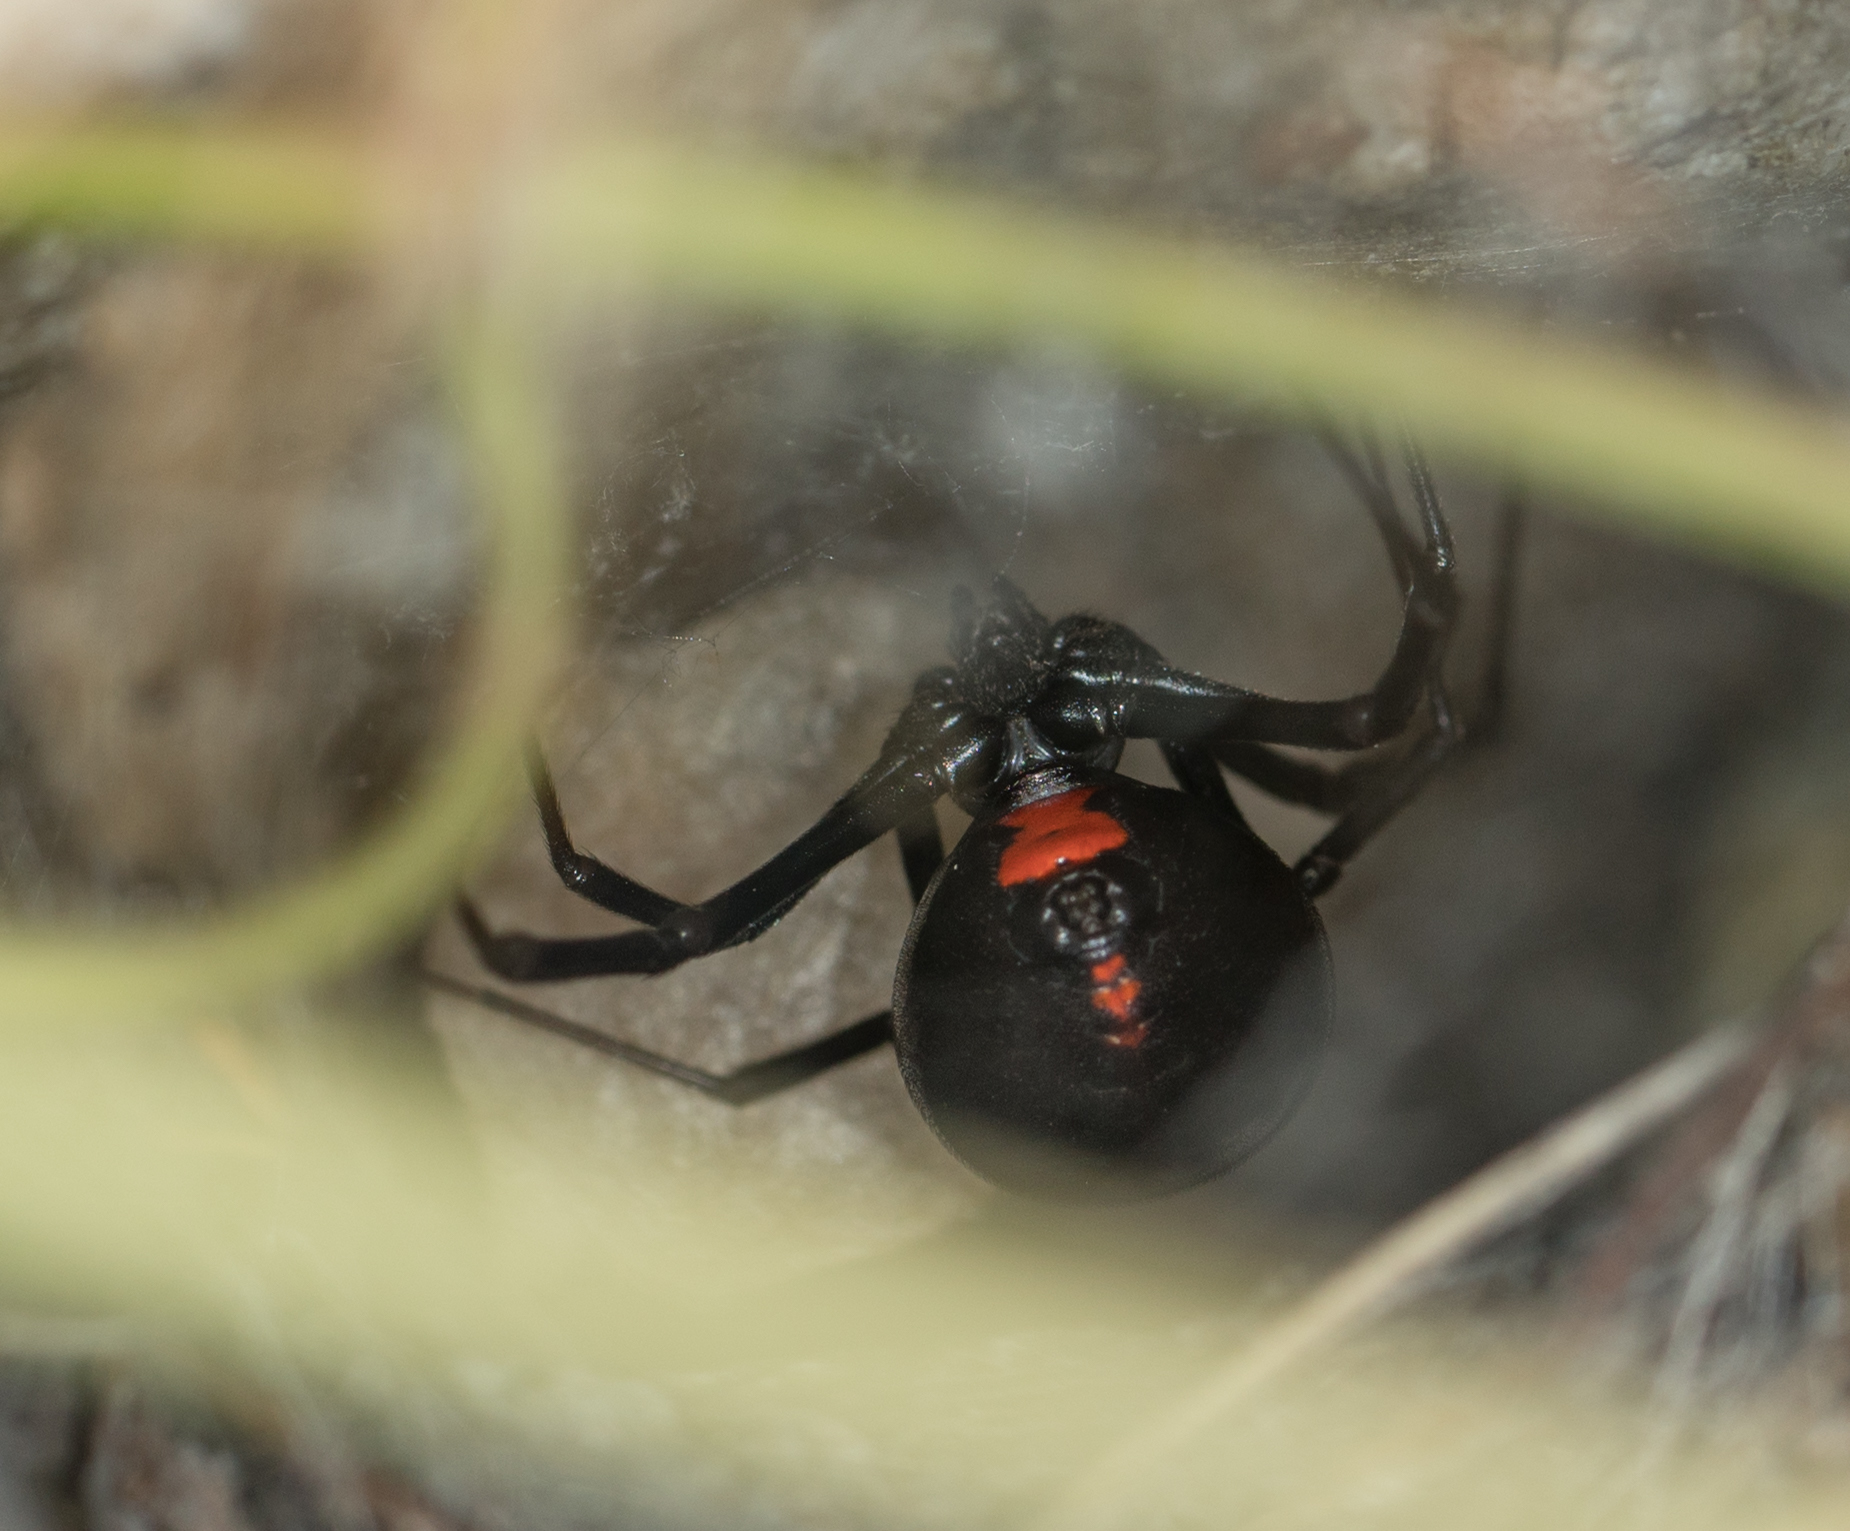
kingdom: Animalia
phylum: Arthropoda
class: Arachnida
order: Araneae
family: Theridiidae
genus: Latrodectus
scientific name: Latrodectus hesperus
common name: Western black widow
